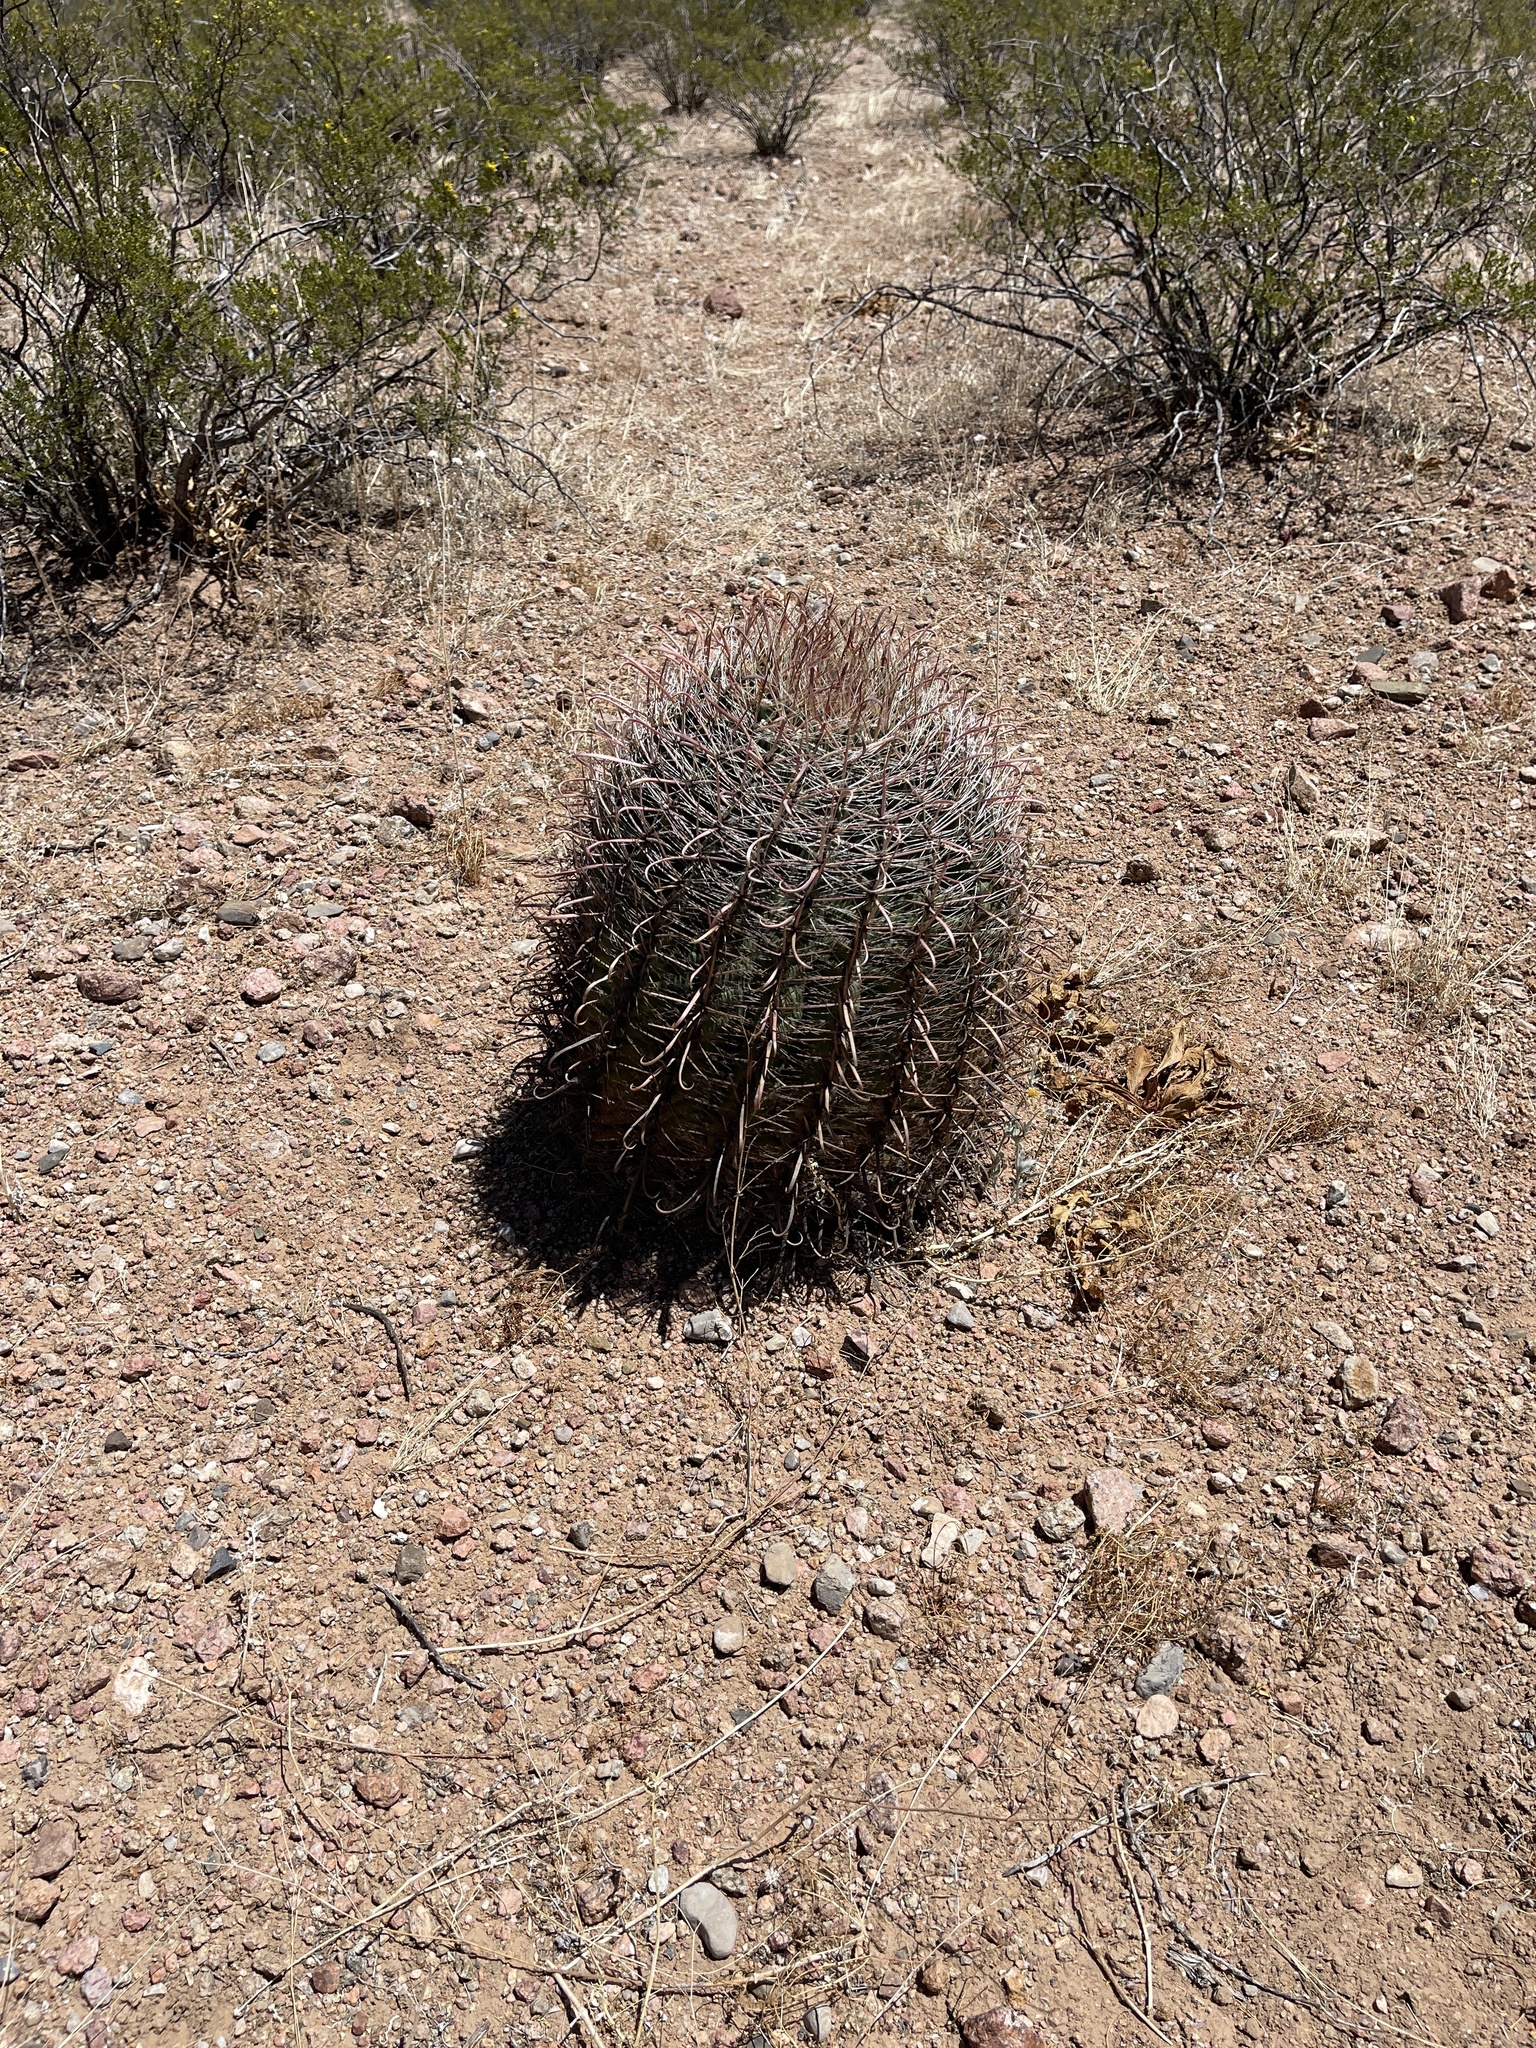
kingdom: Plantae
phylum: Tracheophyta
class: Magnoliopsida
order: Caryophyllales
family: Cactaceae
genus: Ferocactus
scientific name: Ferocactus wislizeni
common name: Candy barrel cactus
